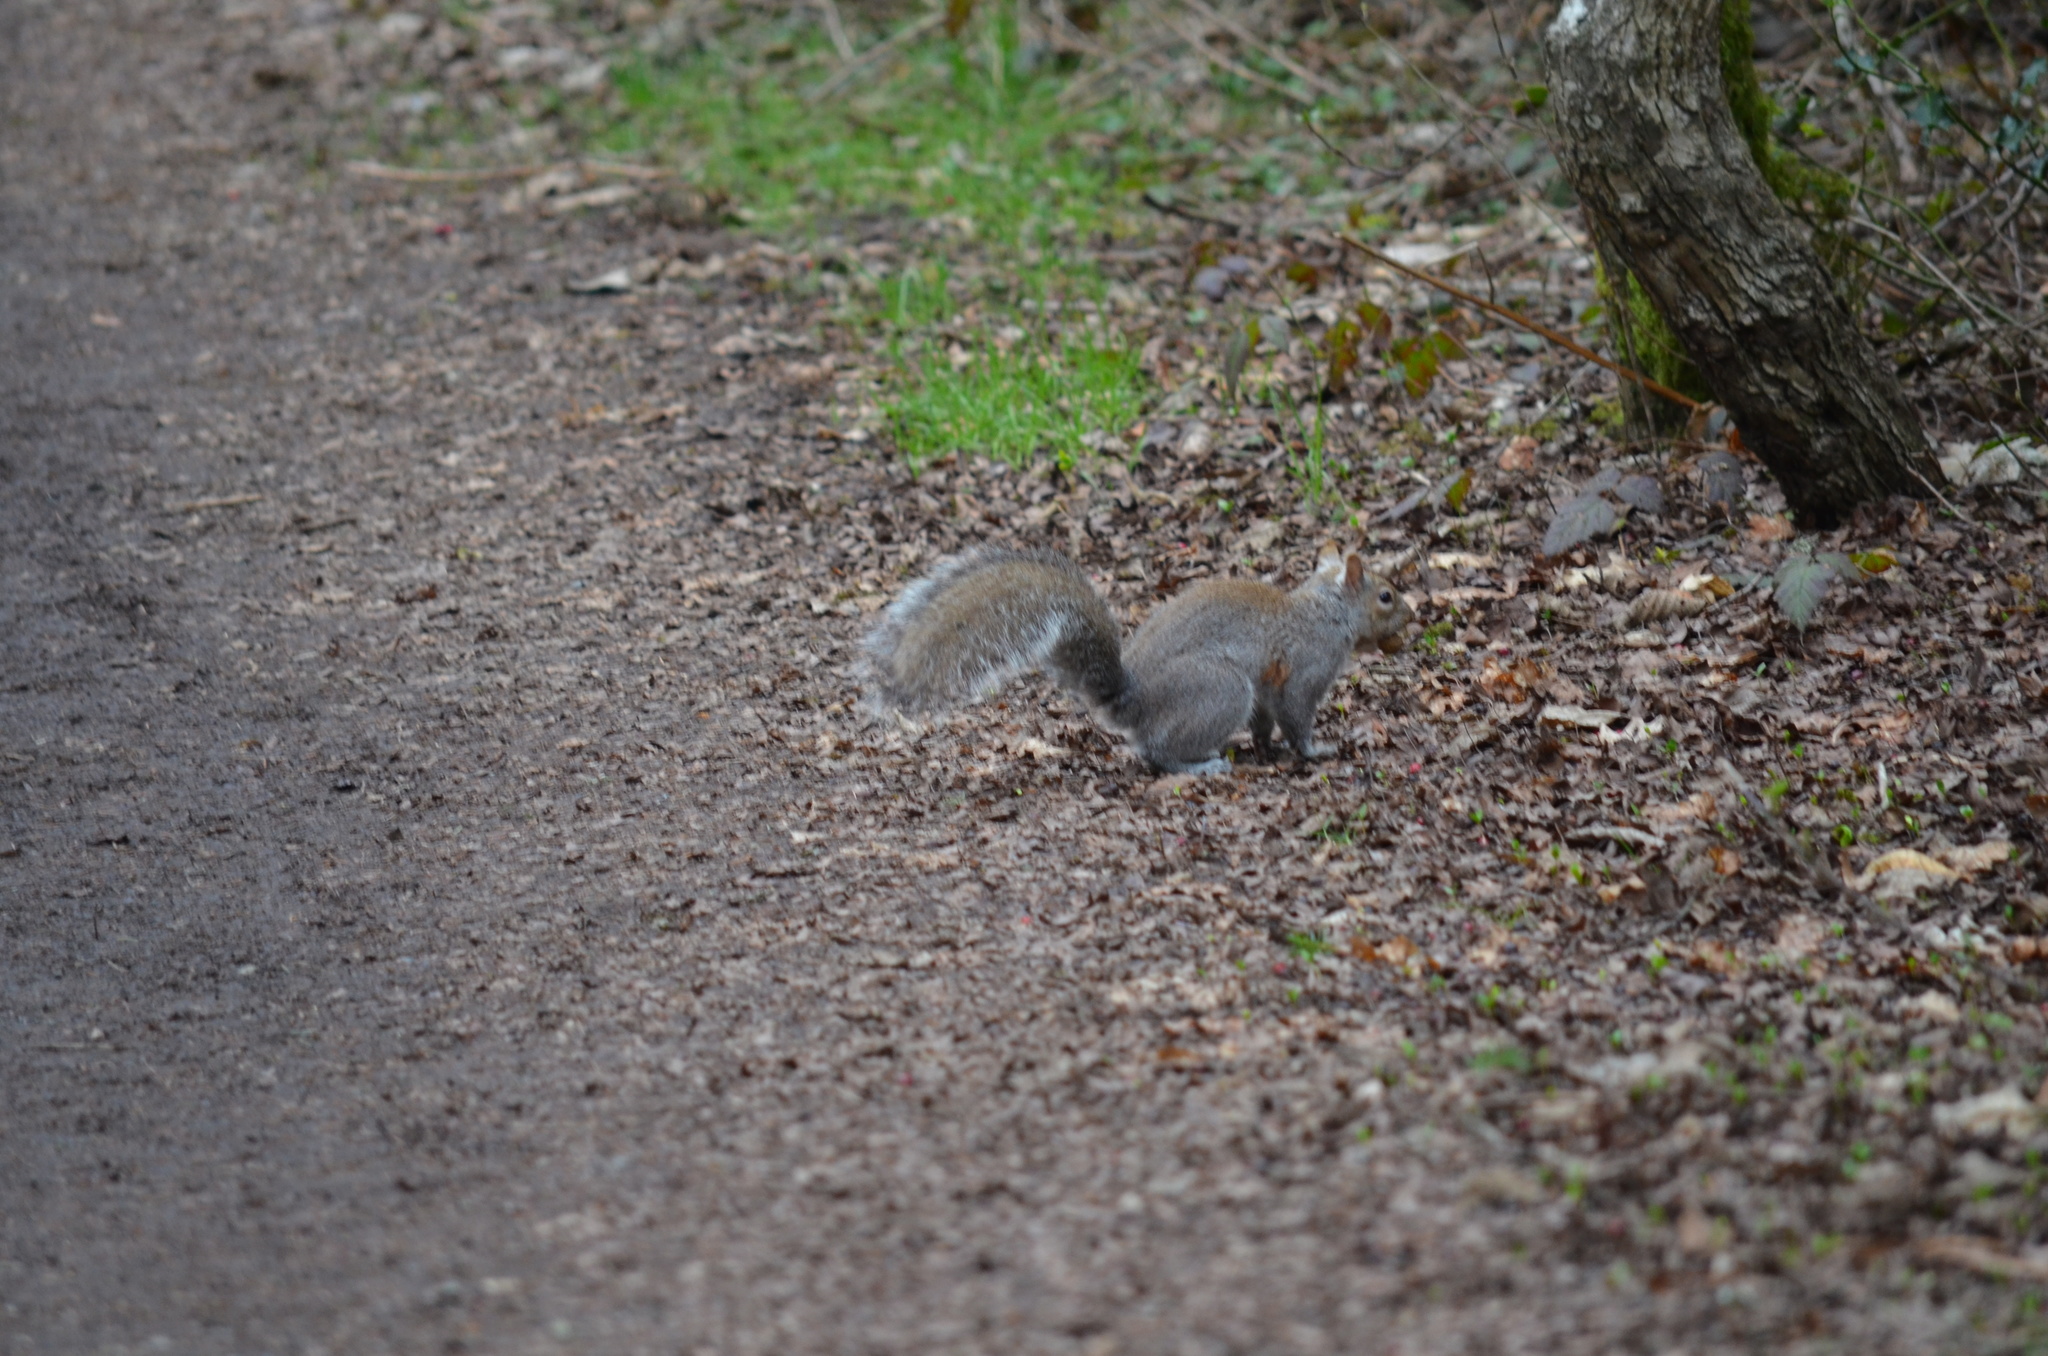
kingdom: Animalia
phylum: Chordata
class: Mammalia
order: Rodentia
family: Sciuridae
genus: Sciurus
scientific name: Sciurus carolinensis
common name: Eastern gray squirrel
